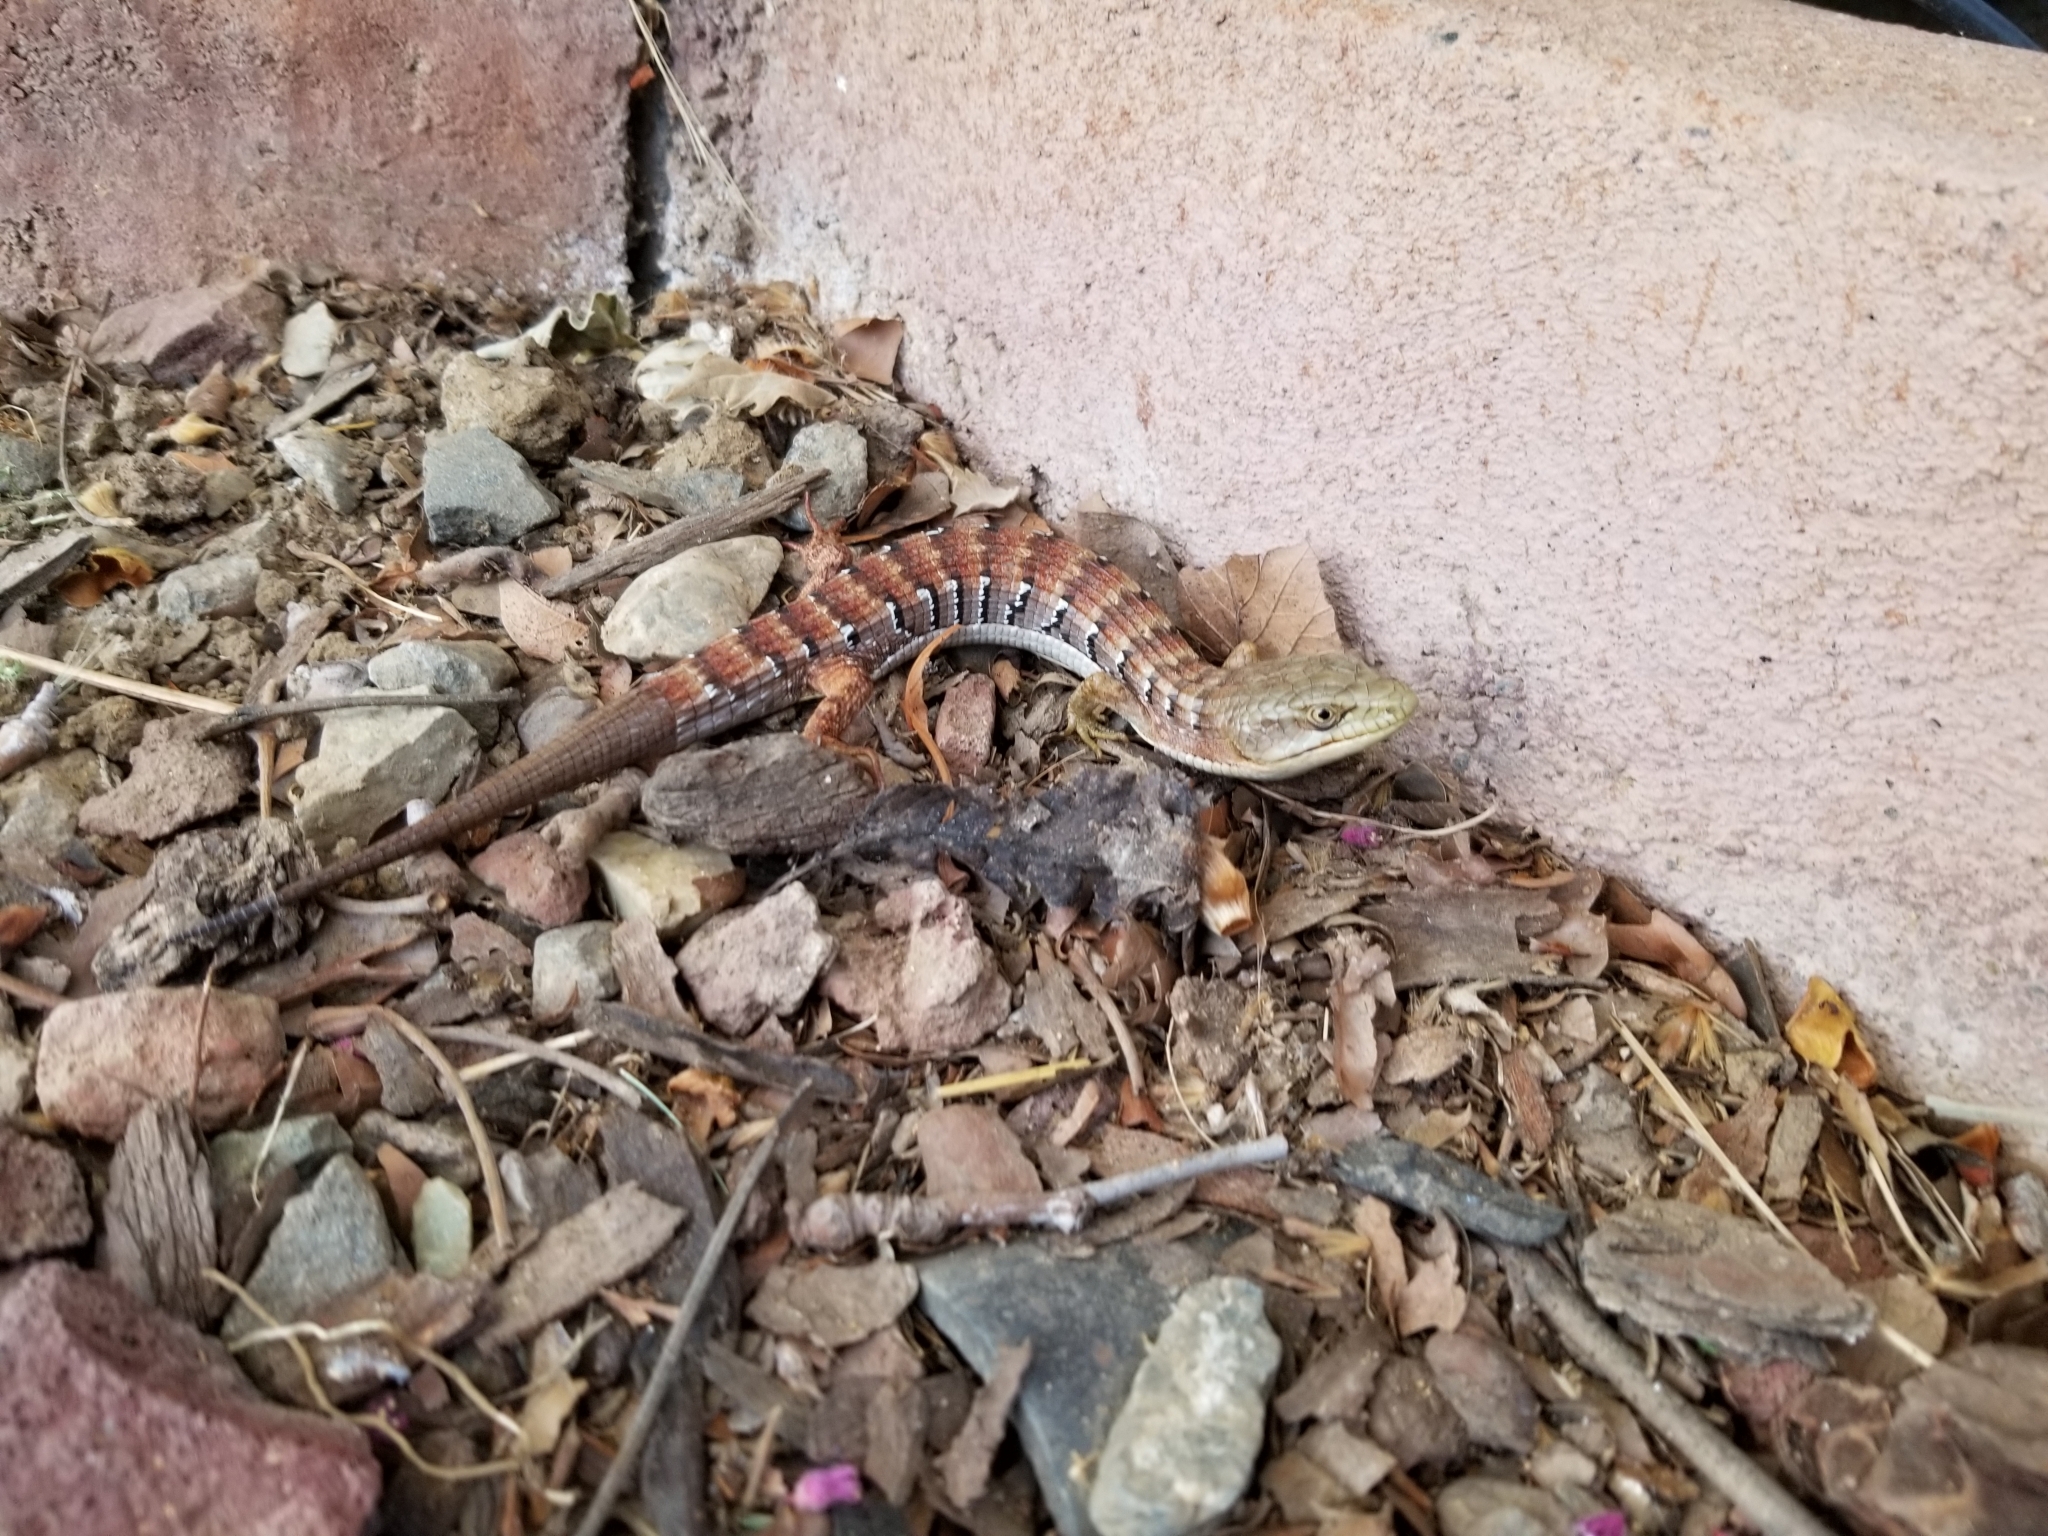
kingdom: Animalia
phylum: Chordata
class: Squamata
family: Anguidae
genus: Elgaria
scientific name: Elgaria multicarinata
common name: Southern alligator lizard
